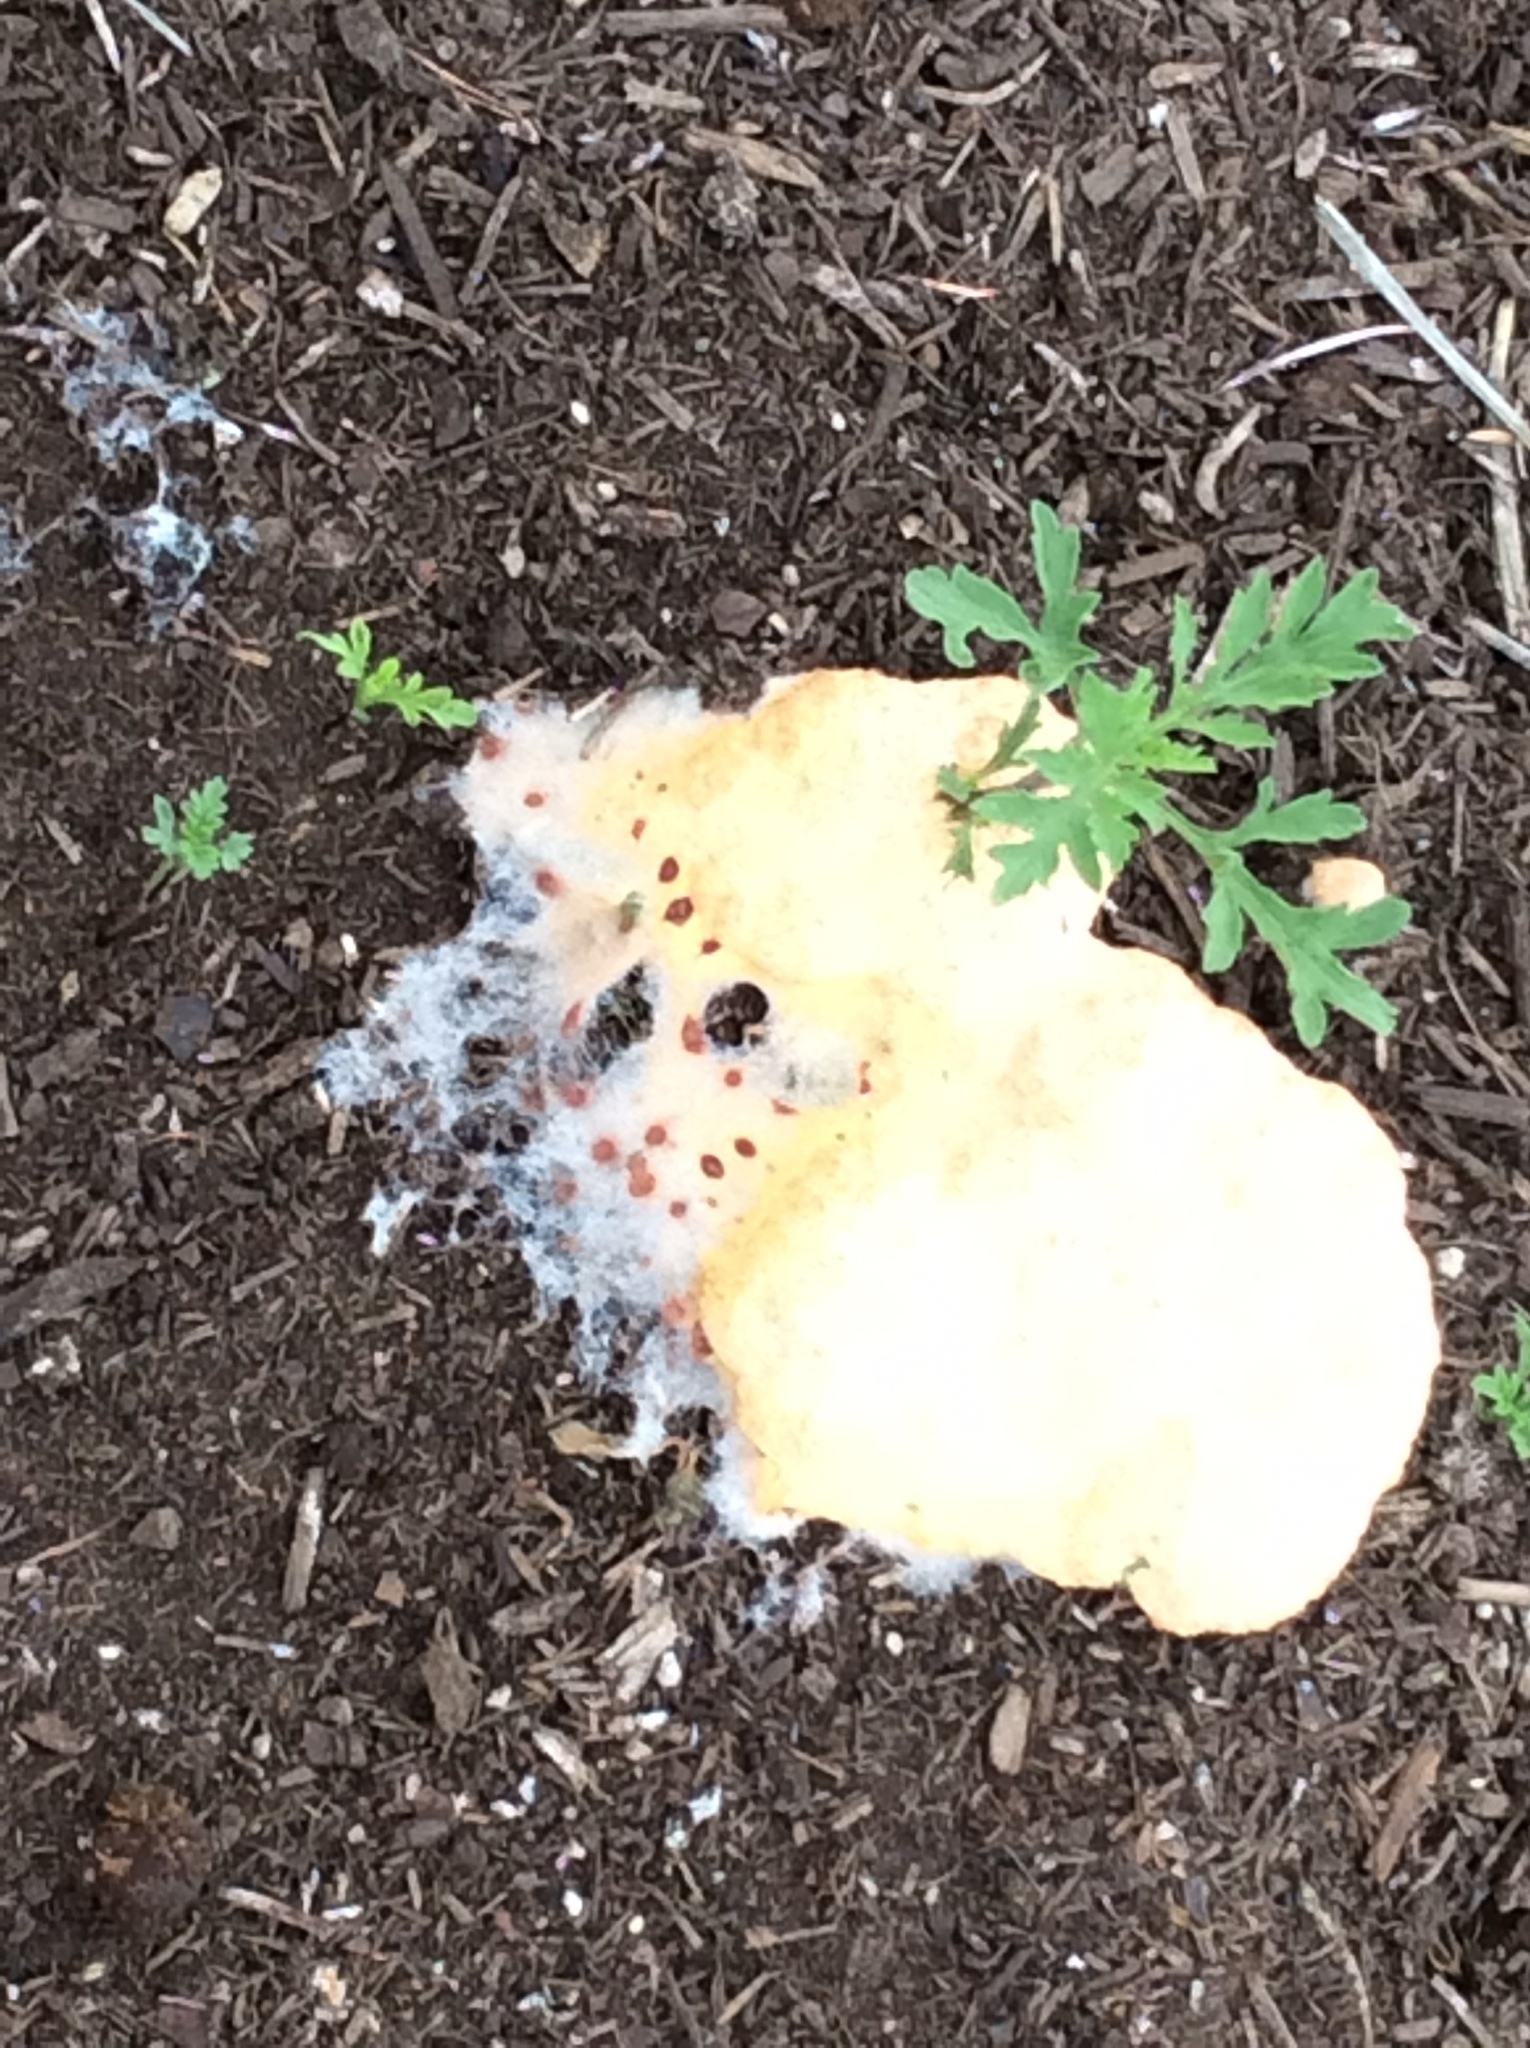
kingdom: Protozoa
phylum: Mycetozoa
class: Myxomycetes
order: Physarales
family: Physaraceae
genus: Fuligo
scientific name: Fuligo septica
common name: Dog vomit slime mold
